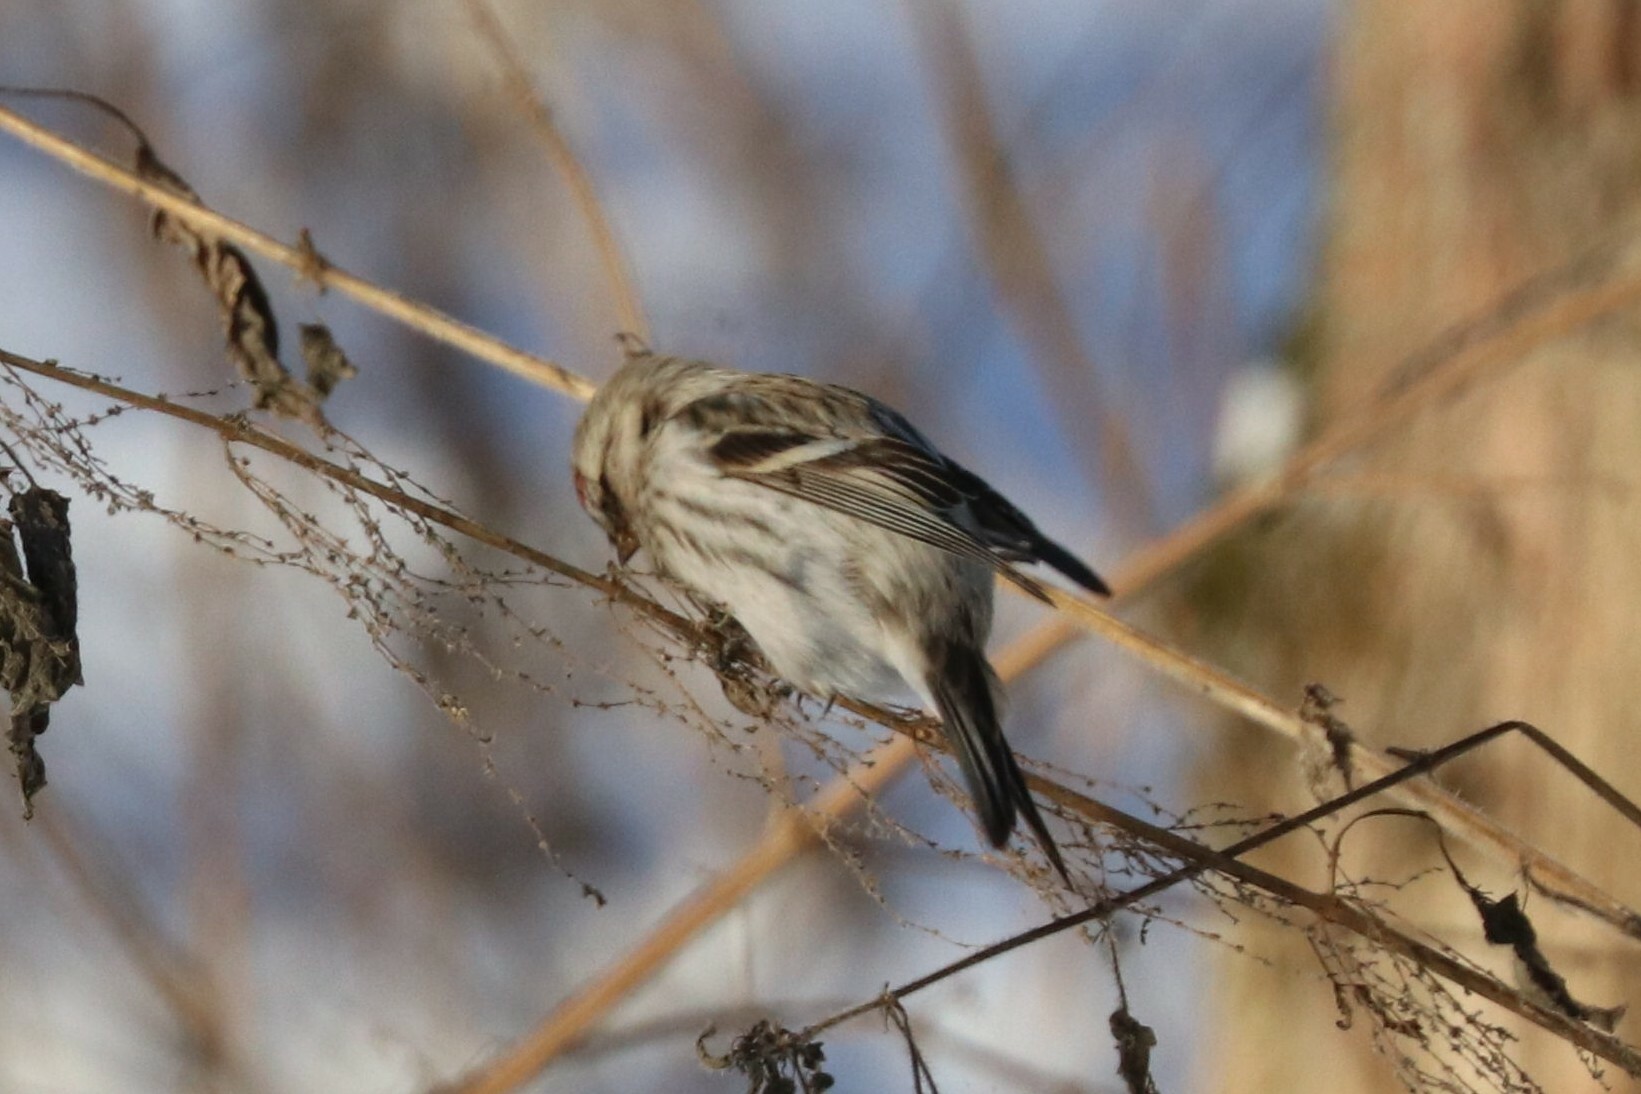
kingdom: Animalia
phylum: Chordata
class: Aves
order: Passeriformes
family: Fringillidae
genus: Acanthis
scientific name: Acanthis flammea
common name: Common redpoll
